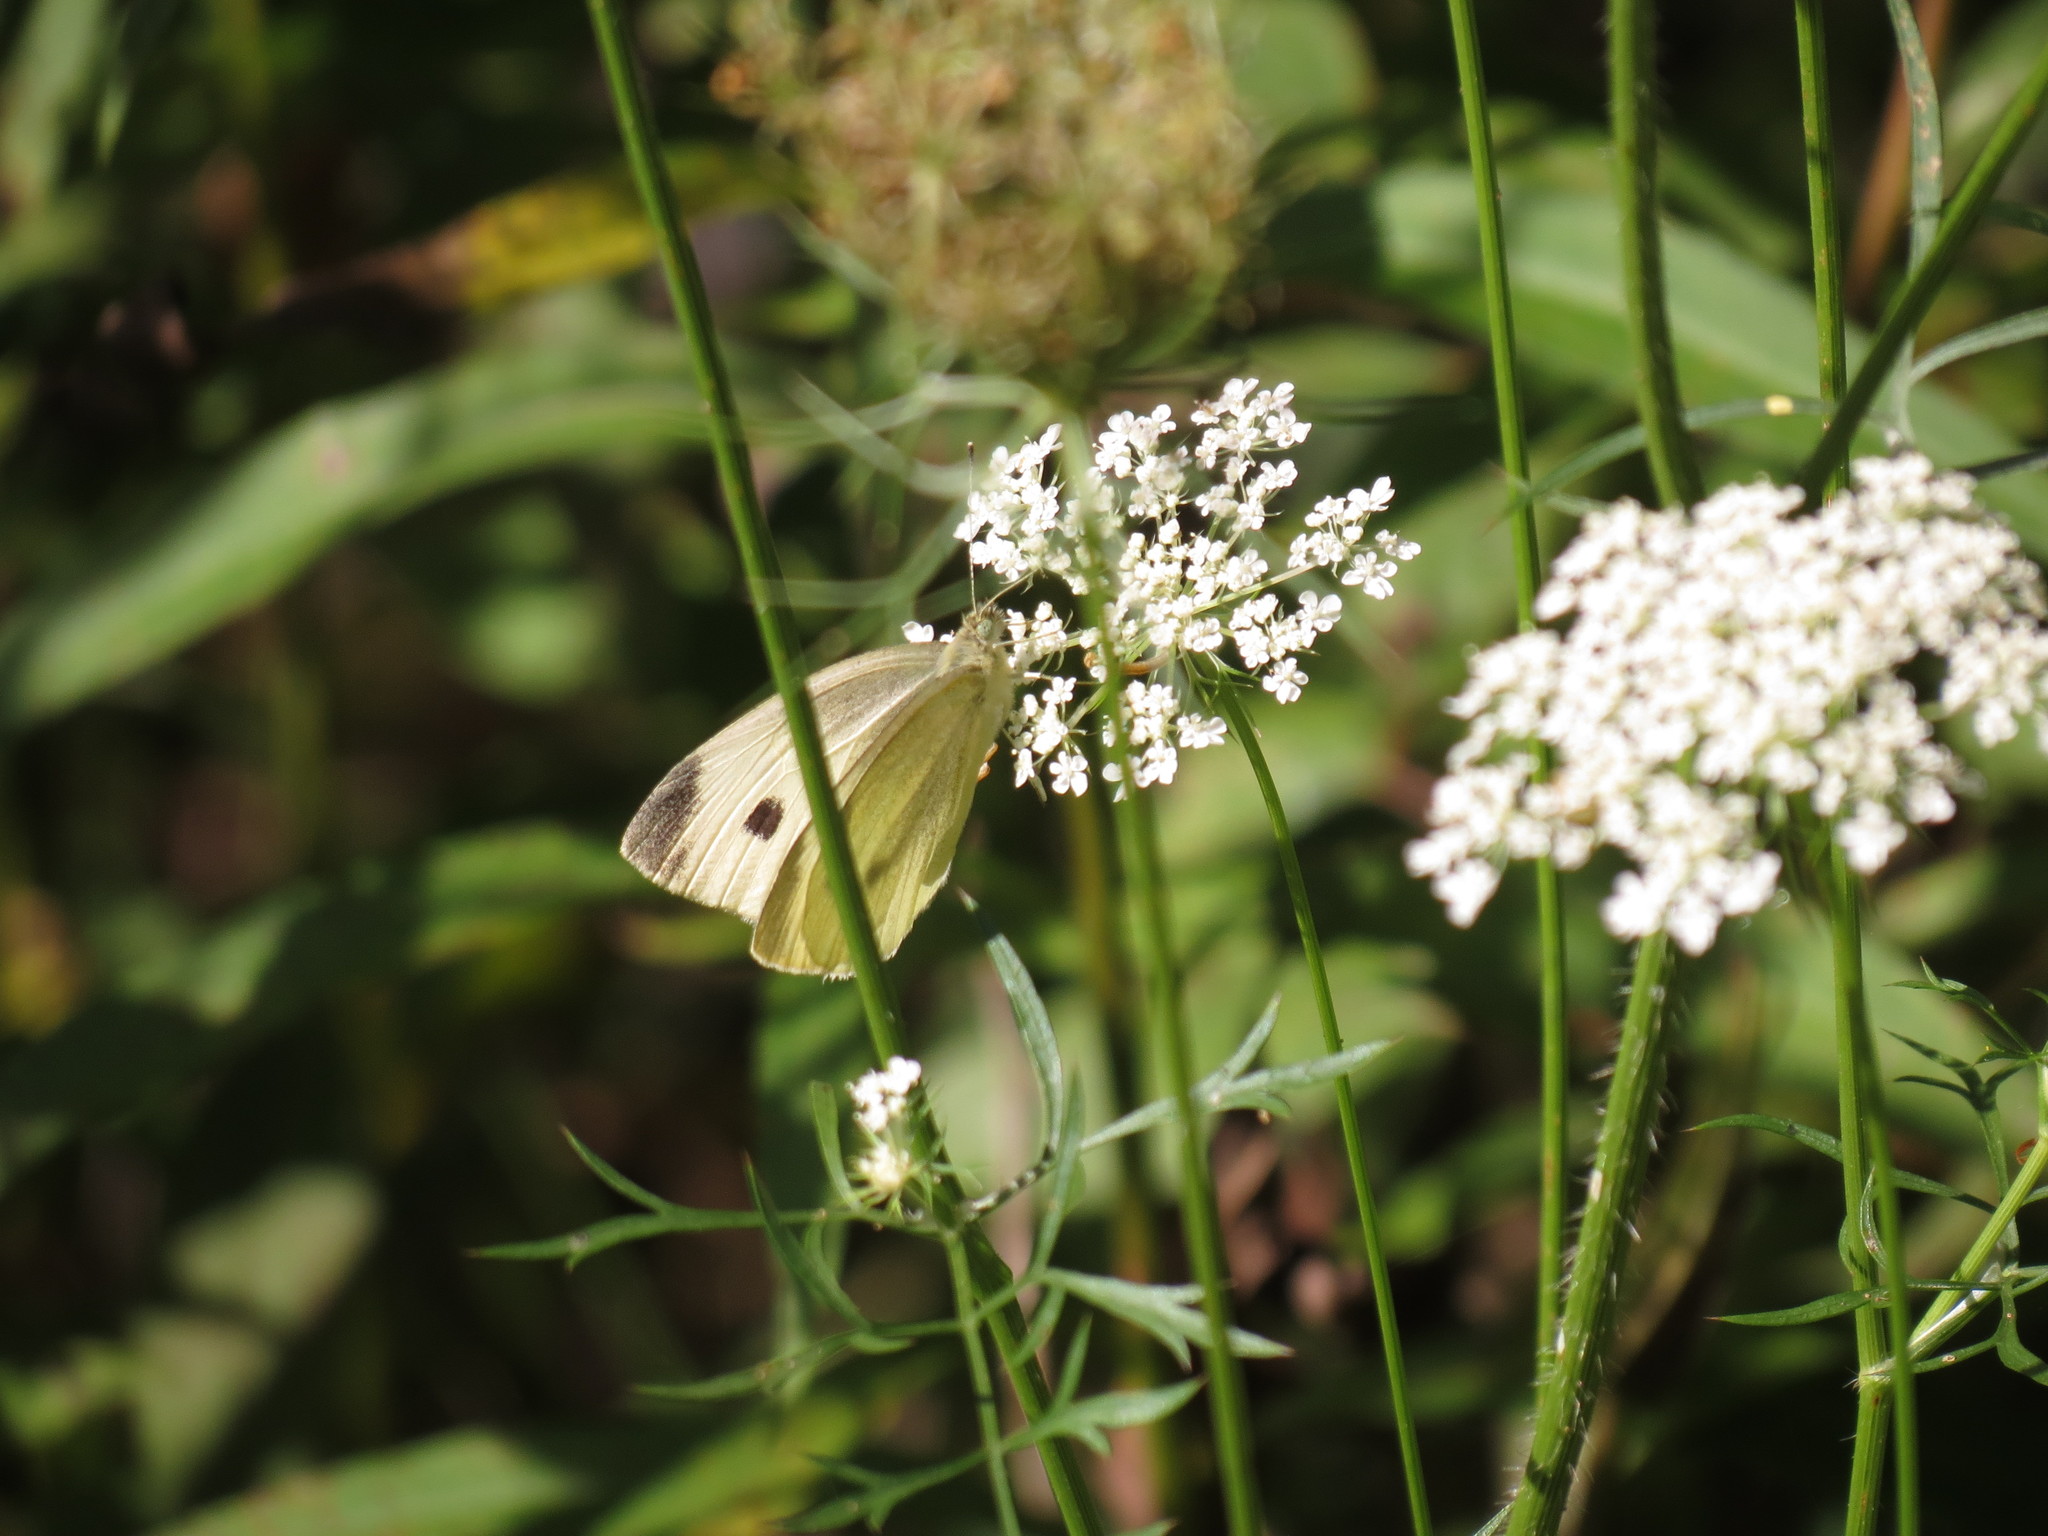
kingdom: Animalia
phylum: Arthropoda
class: Insecta
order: Lepidoptera
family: Pieridae
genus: Pieris
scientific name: Pieris rapae
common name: Small white
